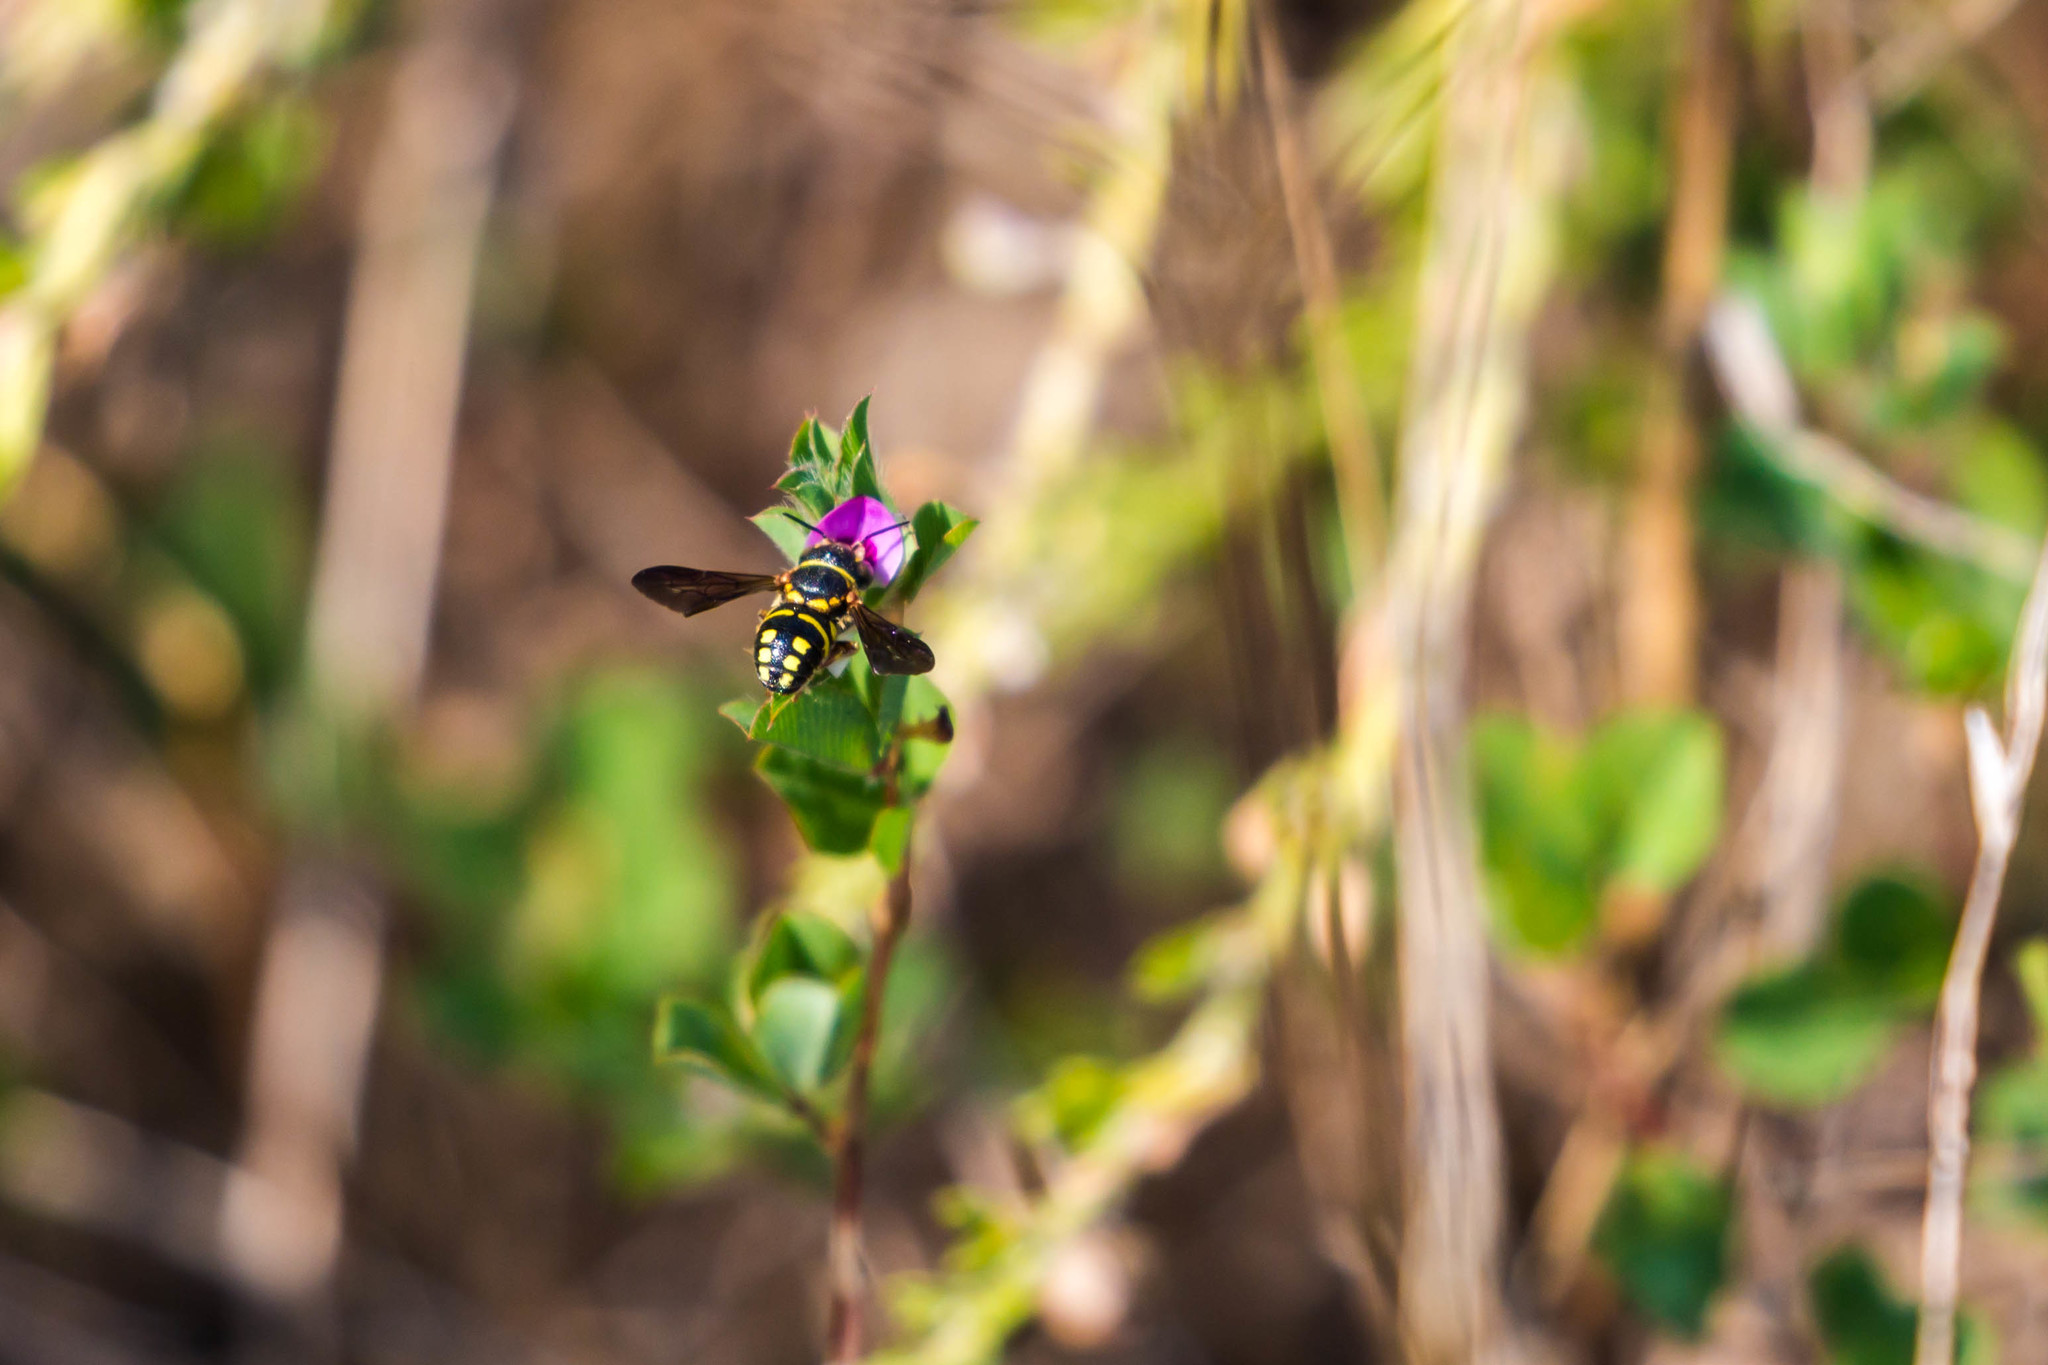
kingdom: Animalia
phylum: Arthropoda
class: Insecta
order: Hymenoptera
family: Megachilidae
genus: Anthidiellum
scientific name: Anthidiellum notatum
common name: Northern rotund-resin bee
